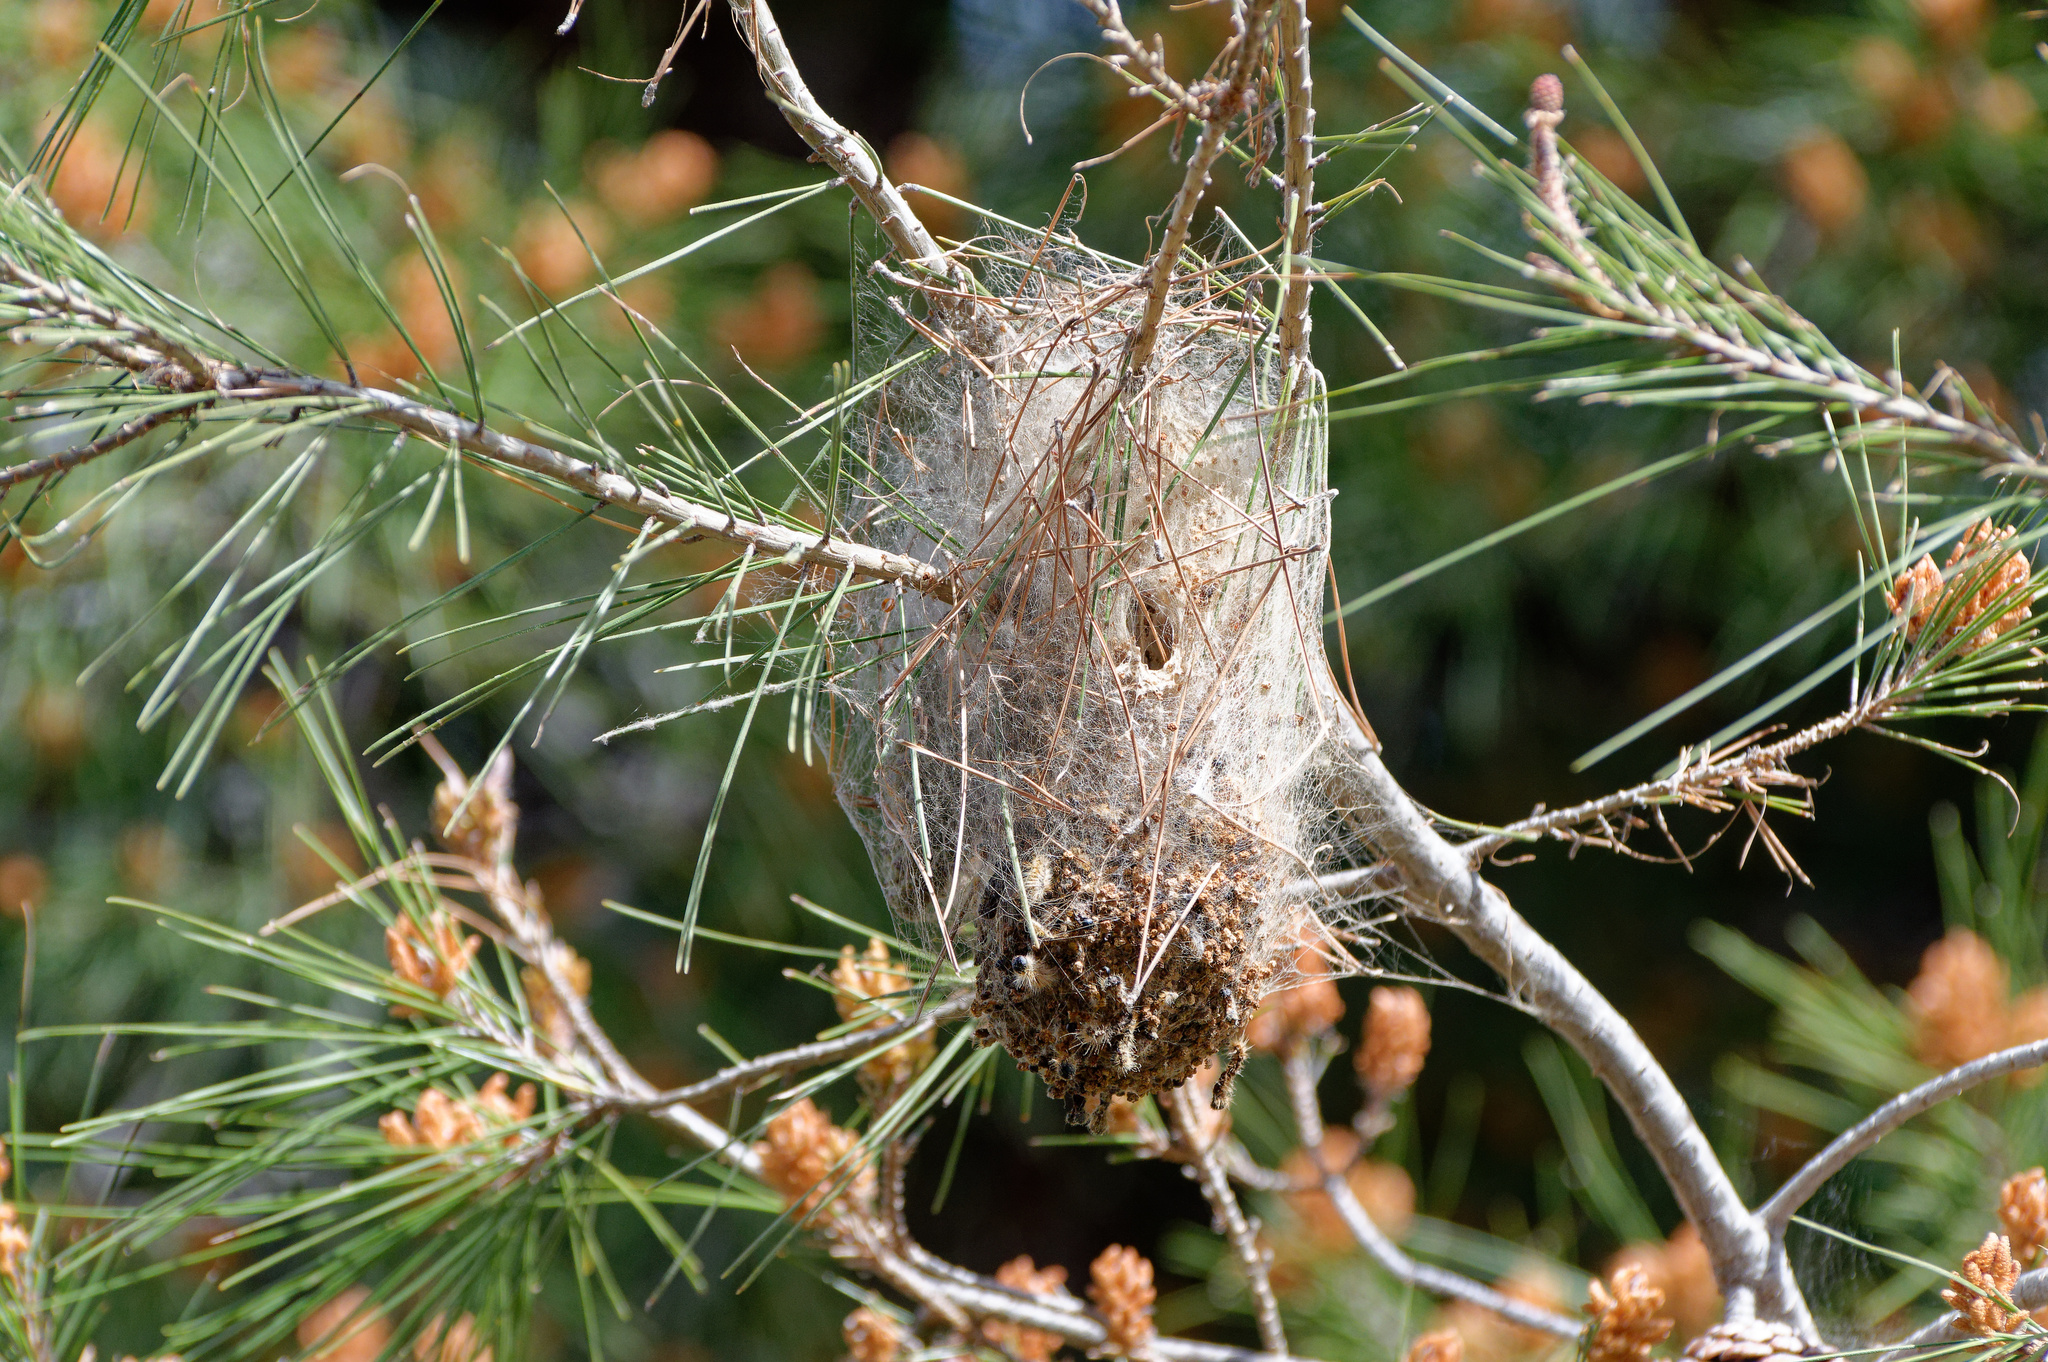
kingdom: Animalia
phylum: Arthropoda
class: Insecta
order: Lepidoptera
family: Notodontidae
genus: Thaumetopoea
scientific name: Thaumetopoea pityocampa
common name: Pine processionary
